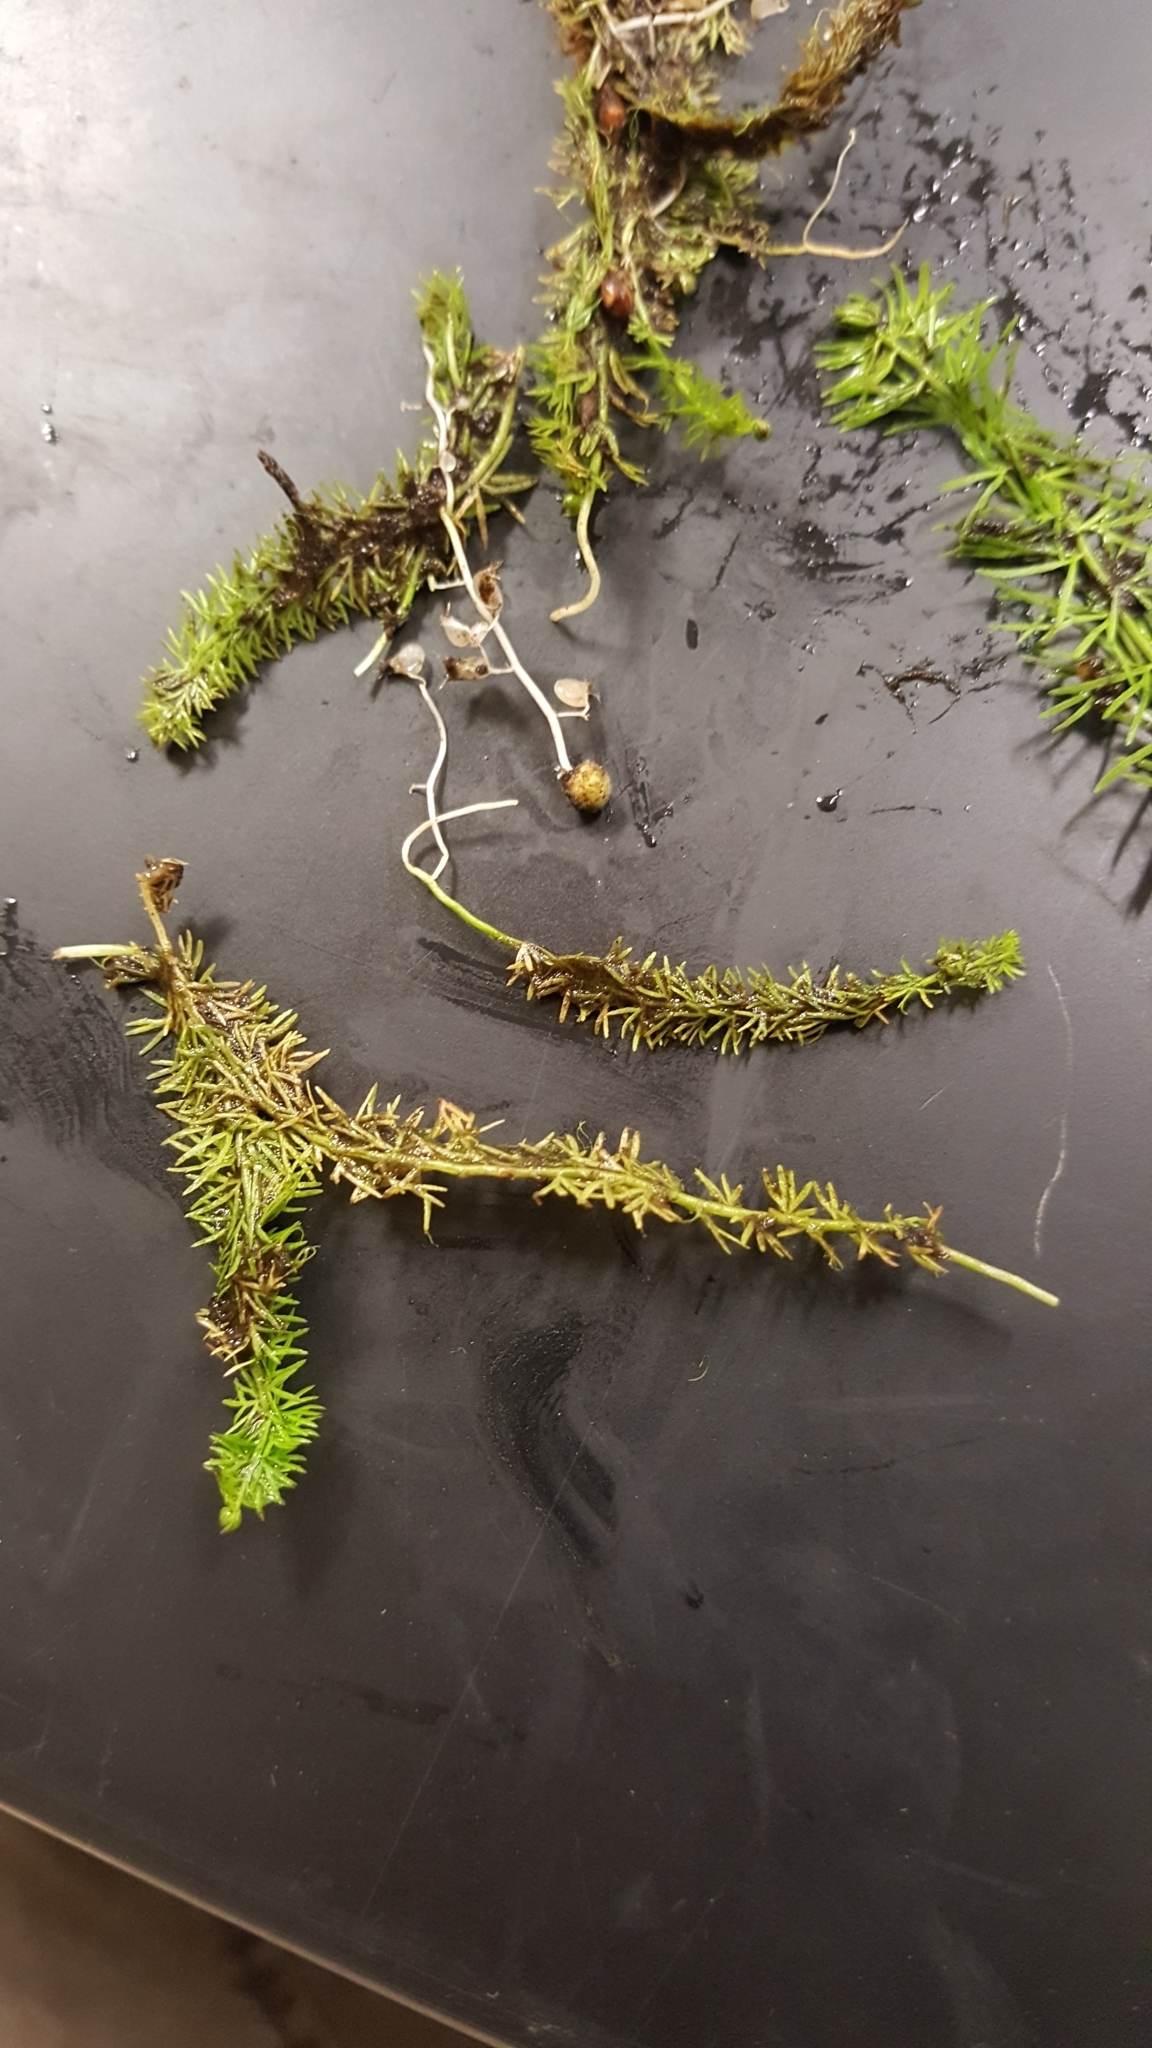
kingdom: Plantae
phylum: Tracheophyta
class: Magnoliopsida
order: Lamiales
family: Lentibulariaceae
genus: Utricularia
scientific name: Utricularia intermedia
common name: Intermediate bladderwort
